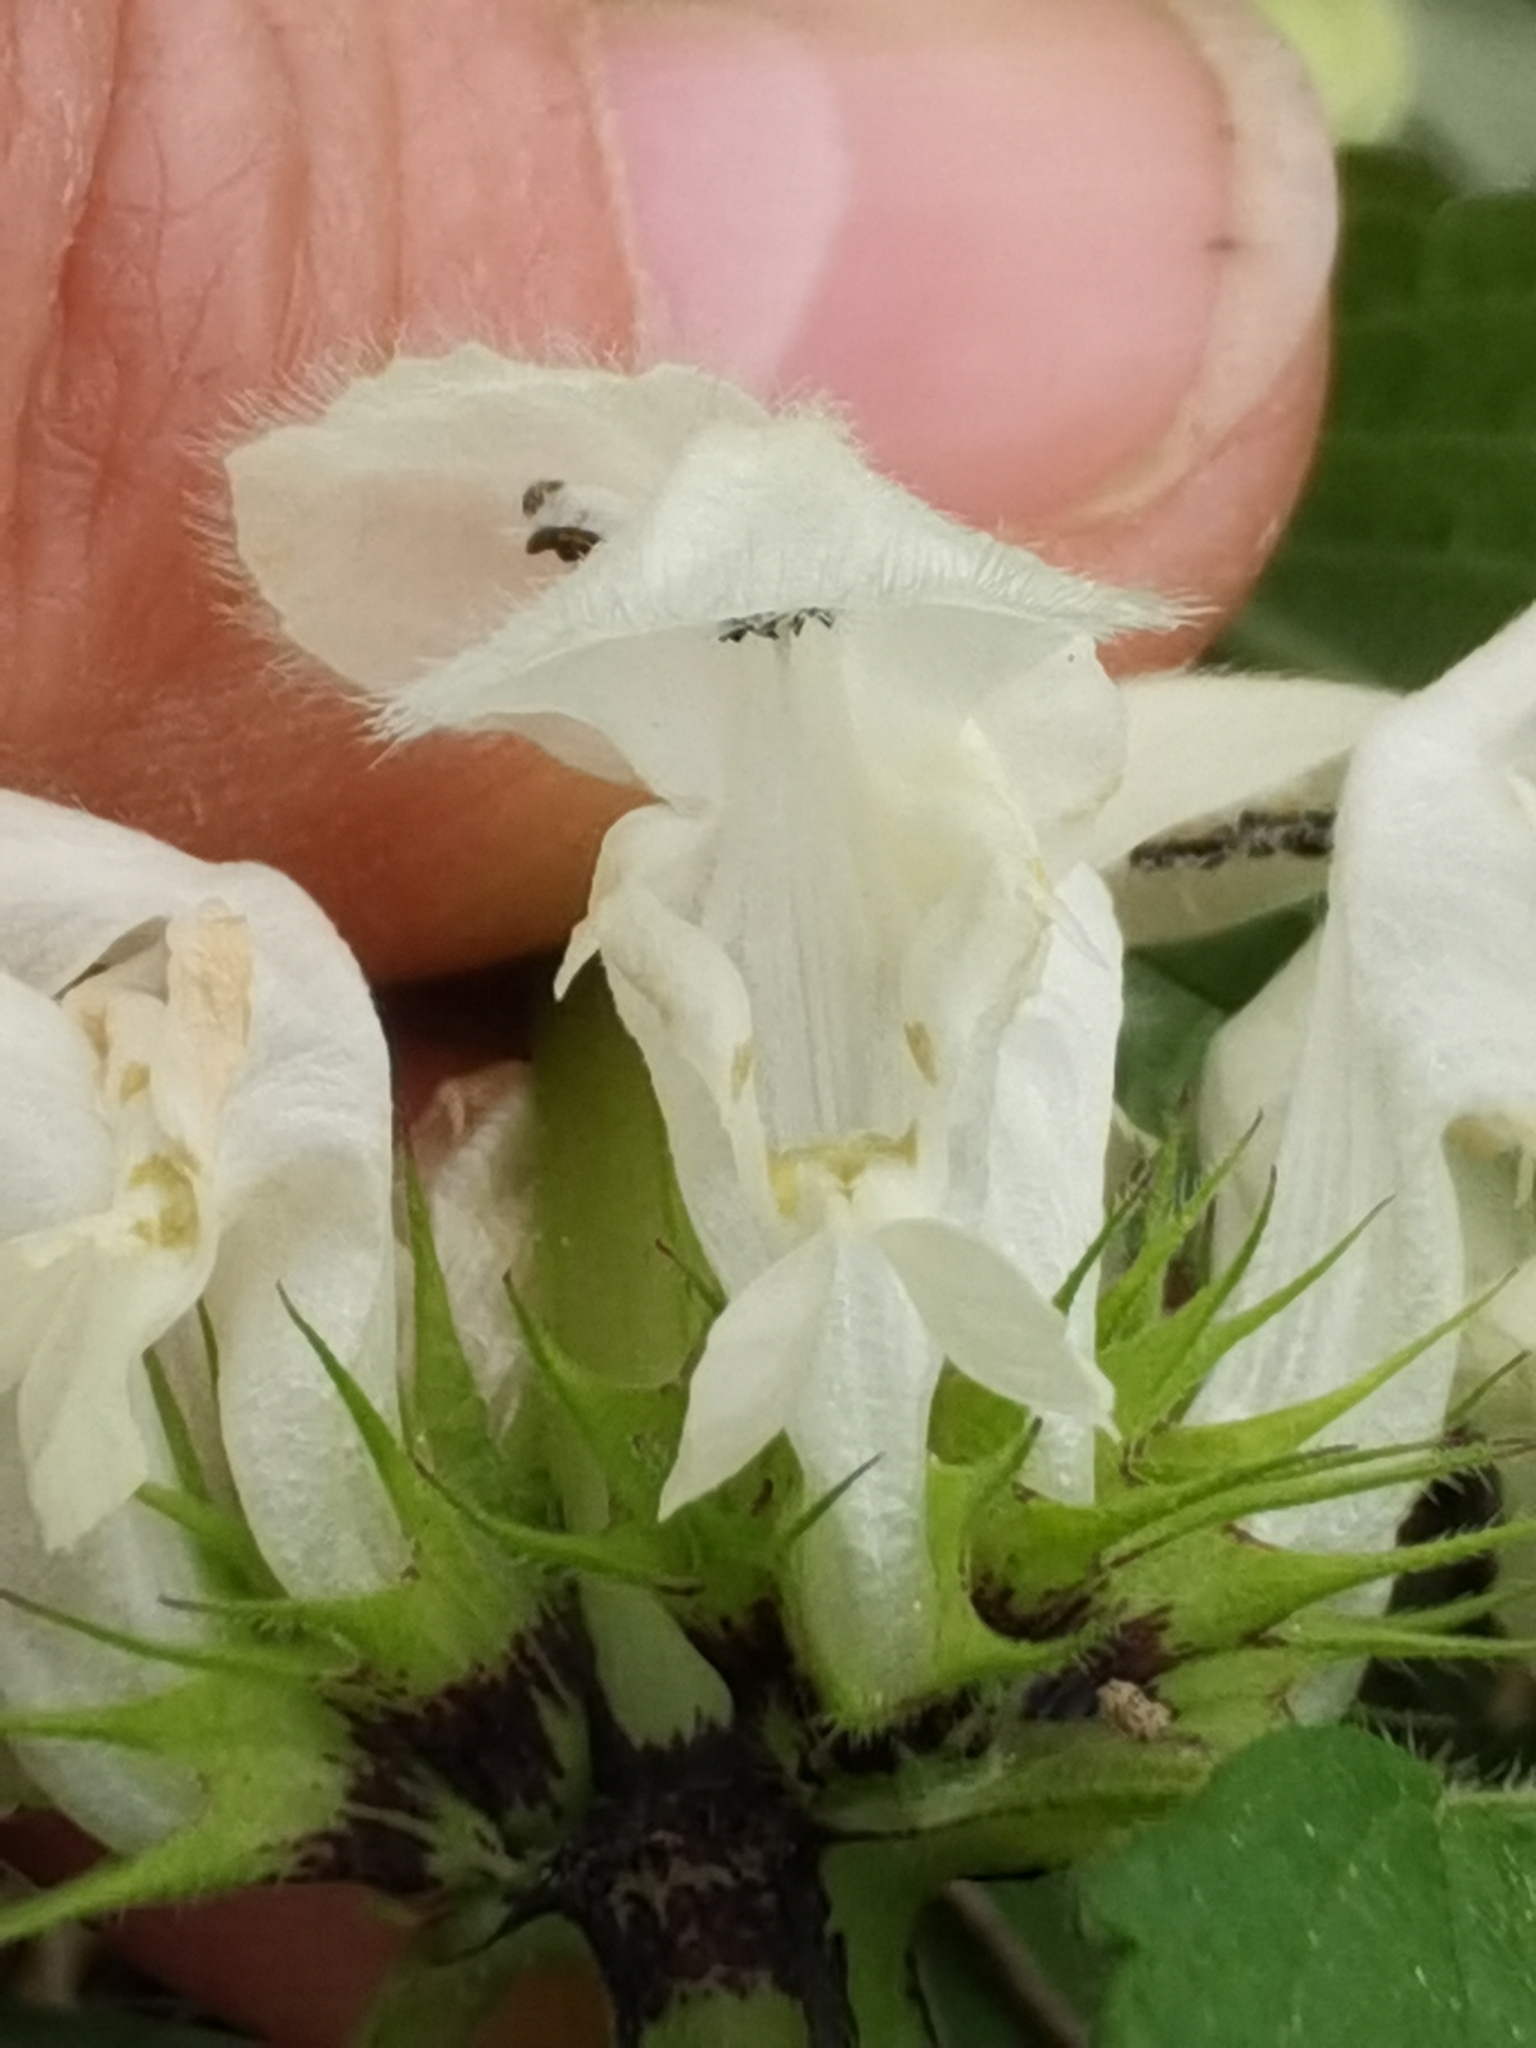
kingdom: Plantae
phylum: Tracheophyta
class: Magnoliopsida
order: Lamiales
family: Lamiaceae
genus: Lamium
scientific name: Lamium album
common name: White dead-nettle
